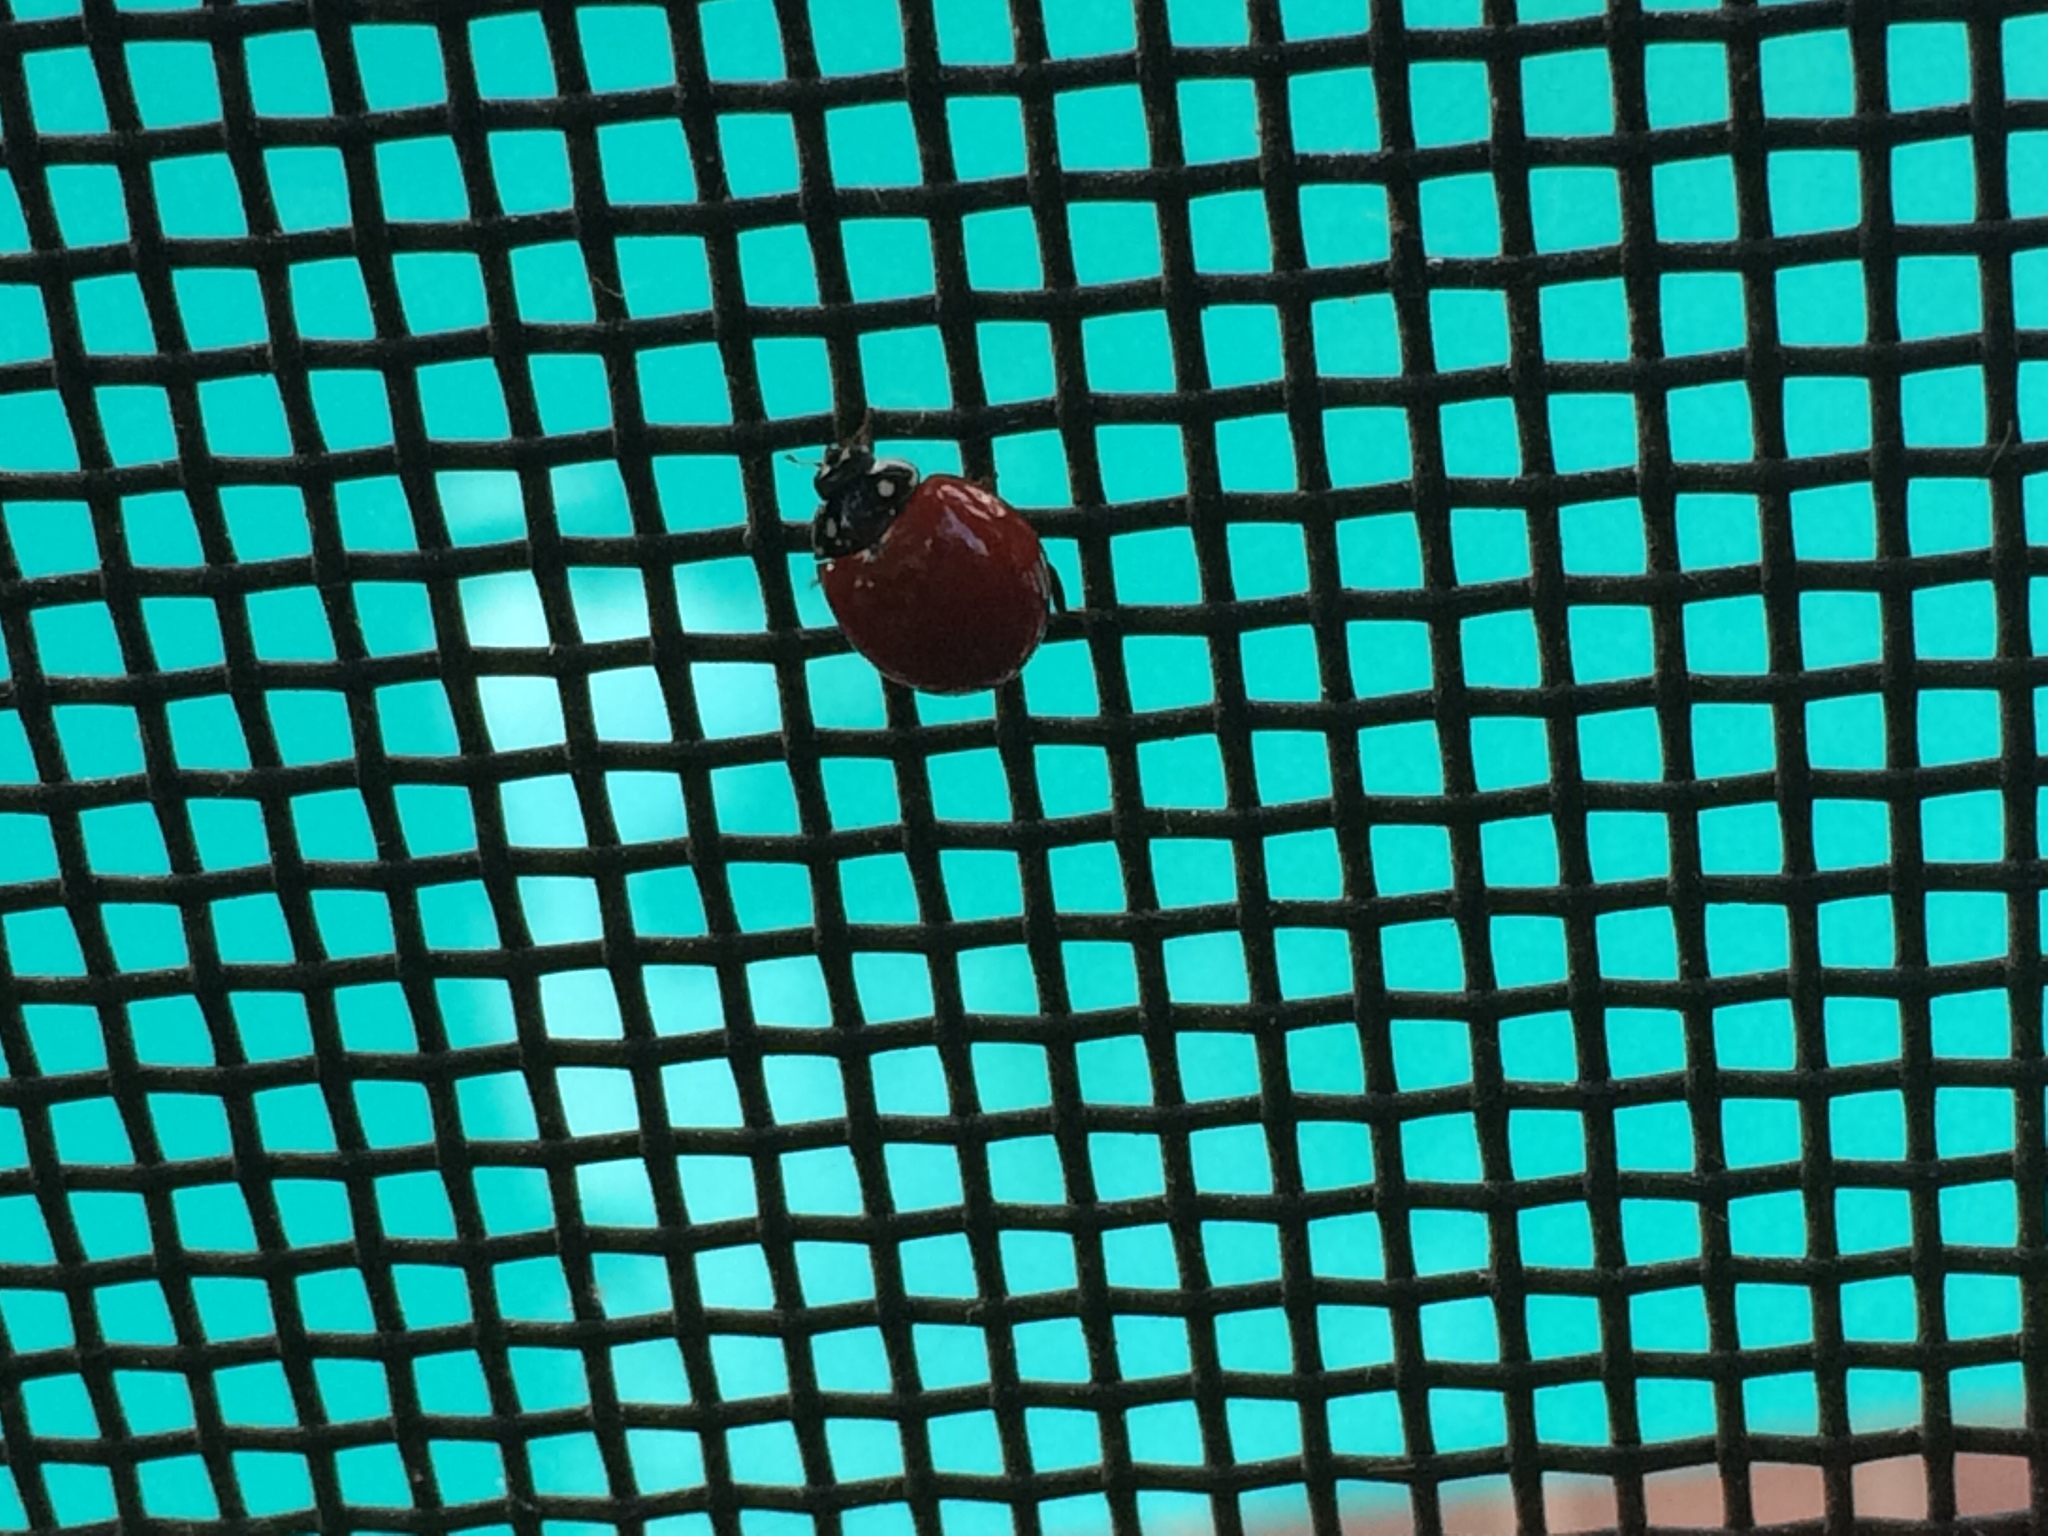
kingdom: Animalia
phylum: Arthropoda
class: Insecta
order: Coleoptera
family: Coccinellidae
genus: Cycloneda
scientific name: Cycloneda sanguinea
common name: Ladybird beetle
